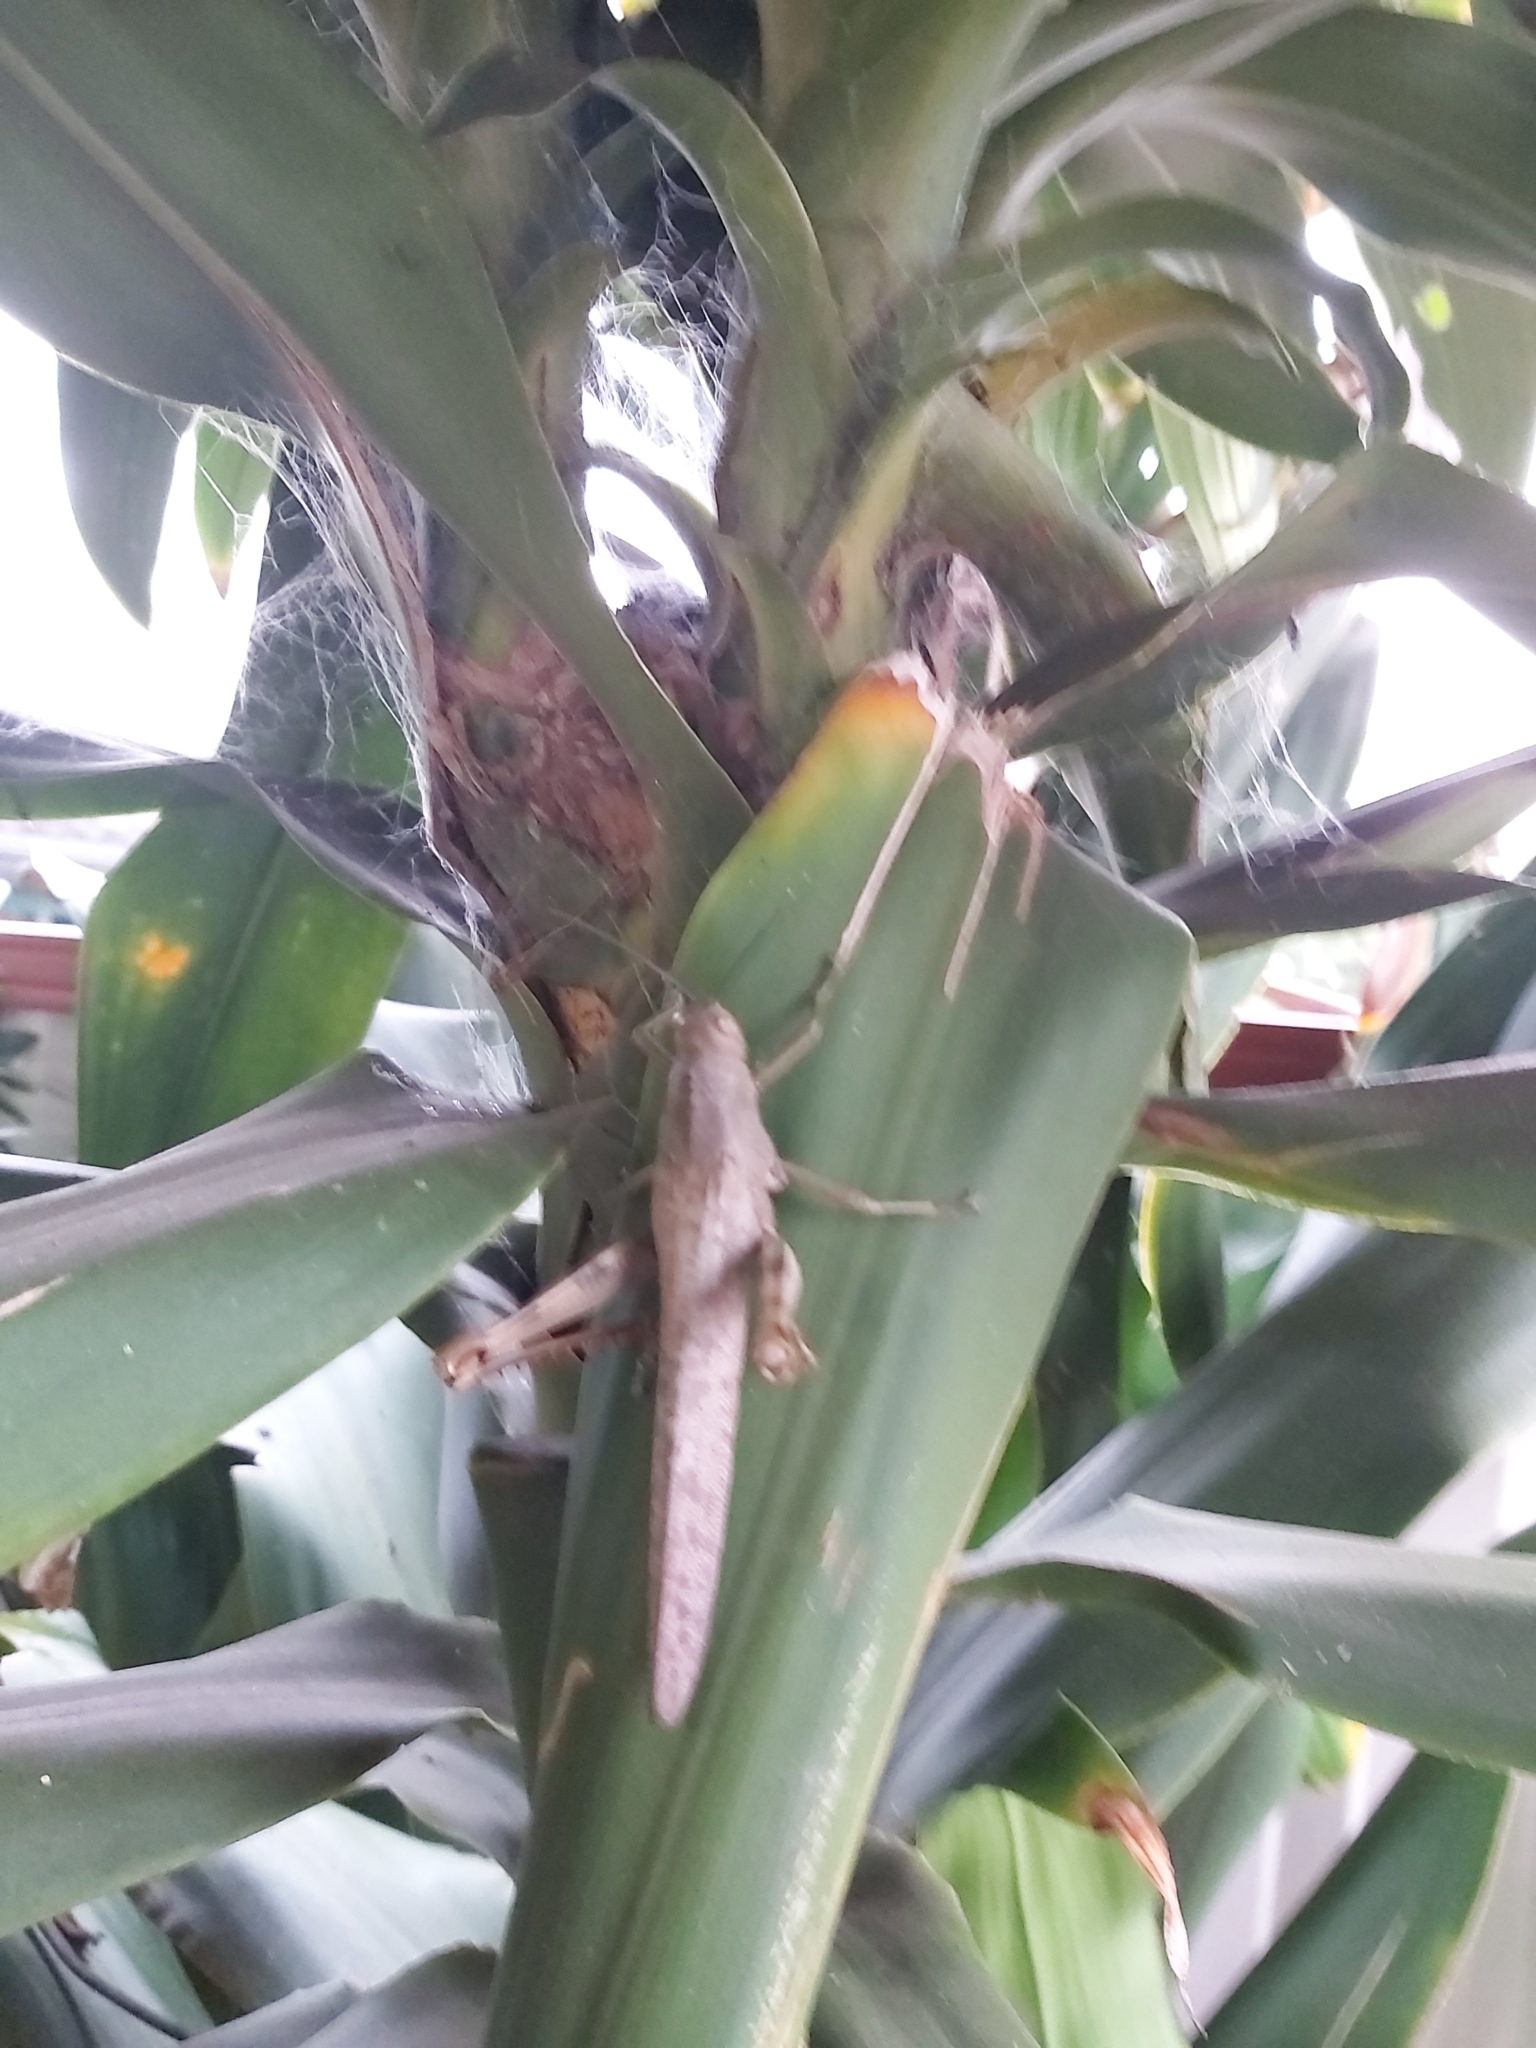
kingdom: Animalia
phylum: Arthropoda
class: Insecta
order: Orthoptera
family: Acrididae
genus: Valanga
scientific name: Valanga irregularis
